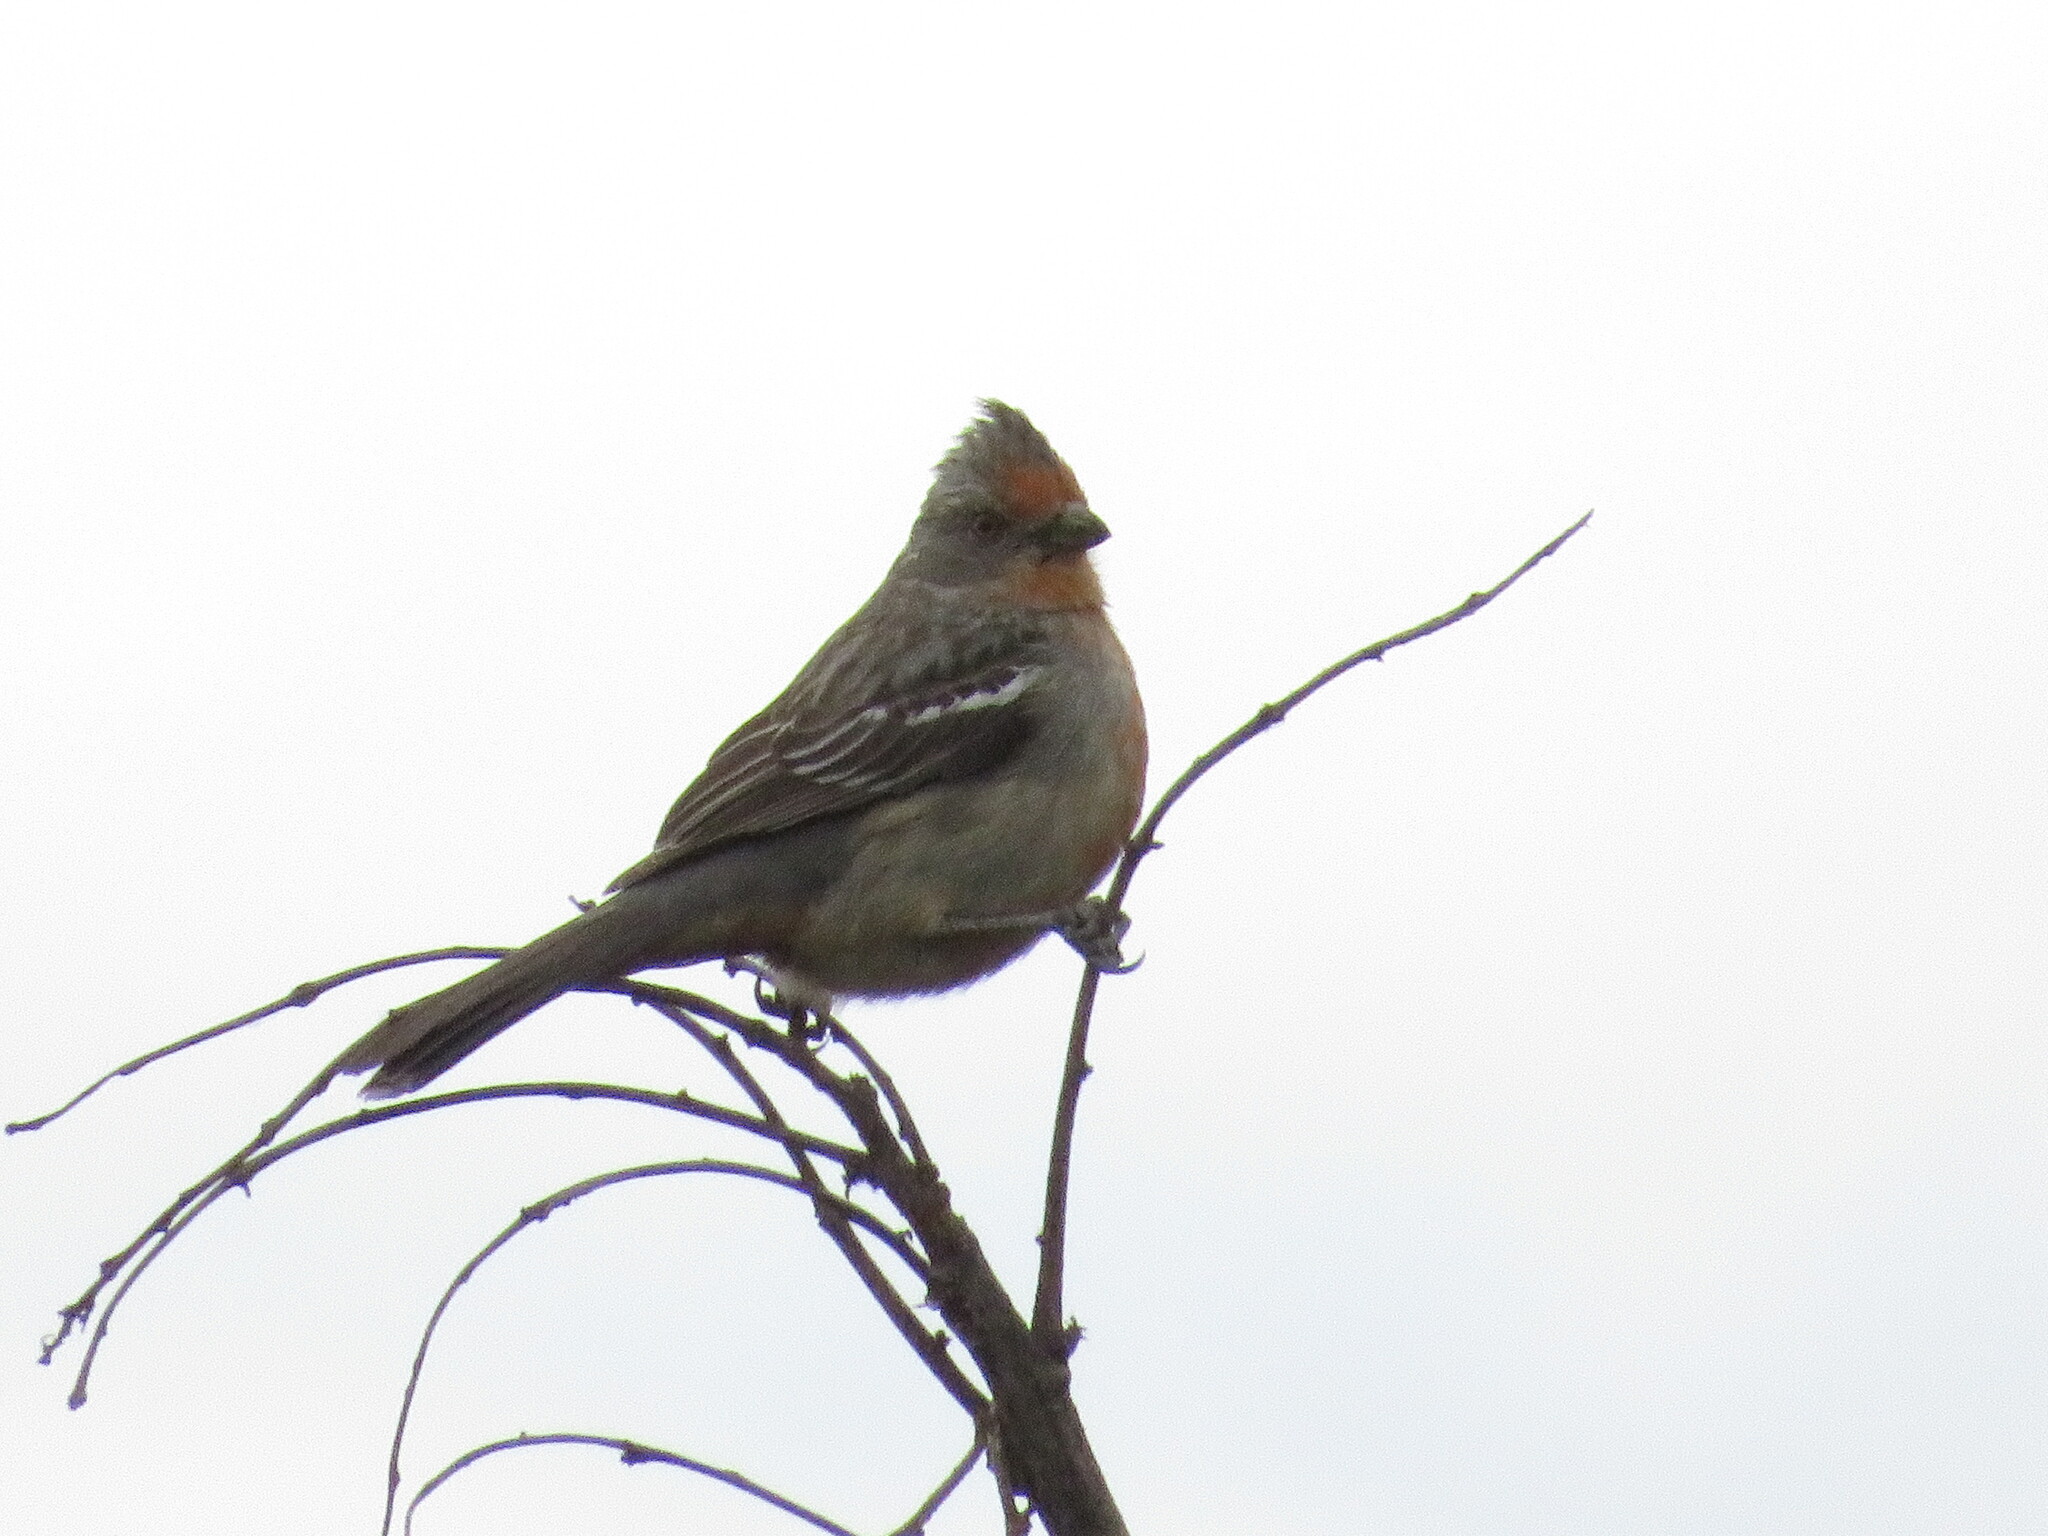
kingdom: Animalia
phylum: Chordata
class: Aves
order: Passeriformes
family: Cotingidae
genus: Phytotoma
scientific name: Phytotoma rutila
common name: White-tipped plantcutter
